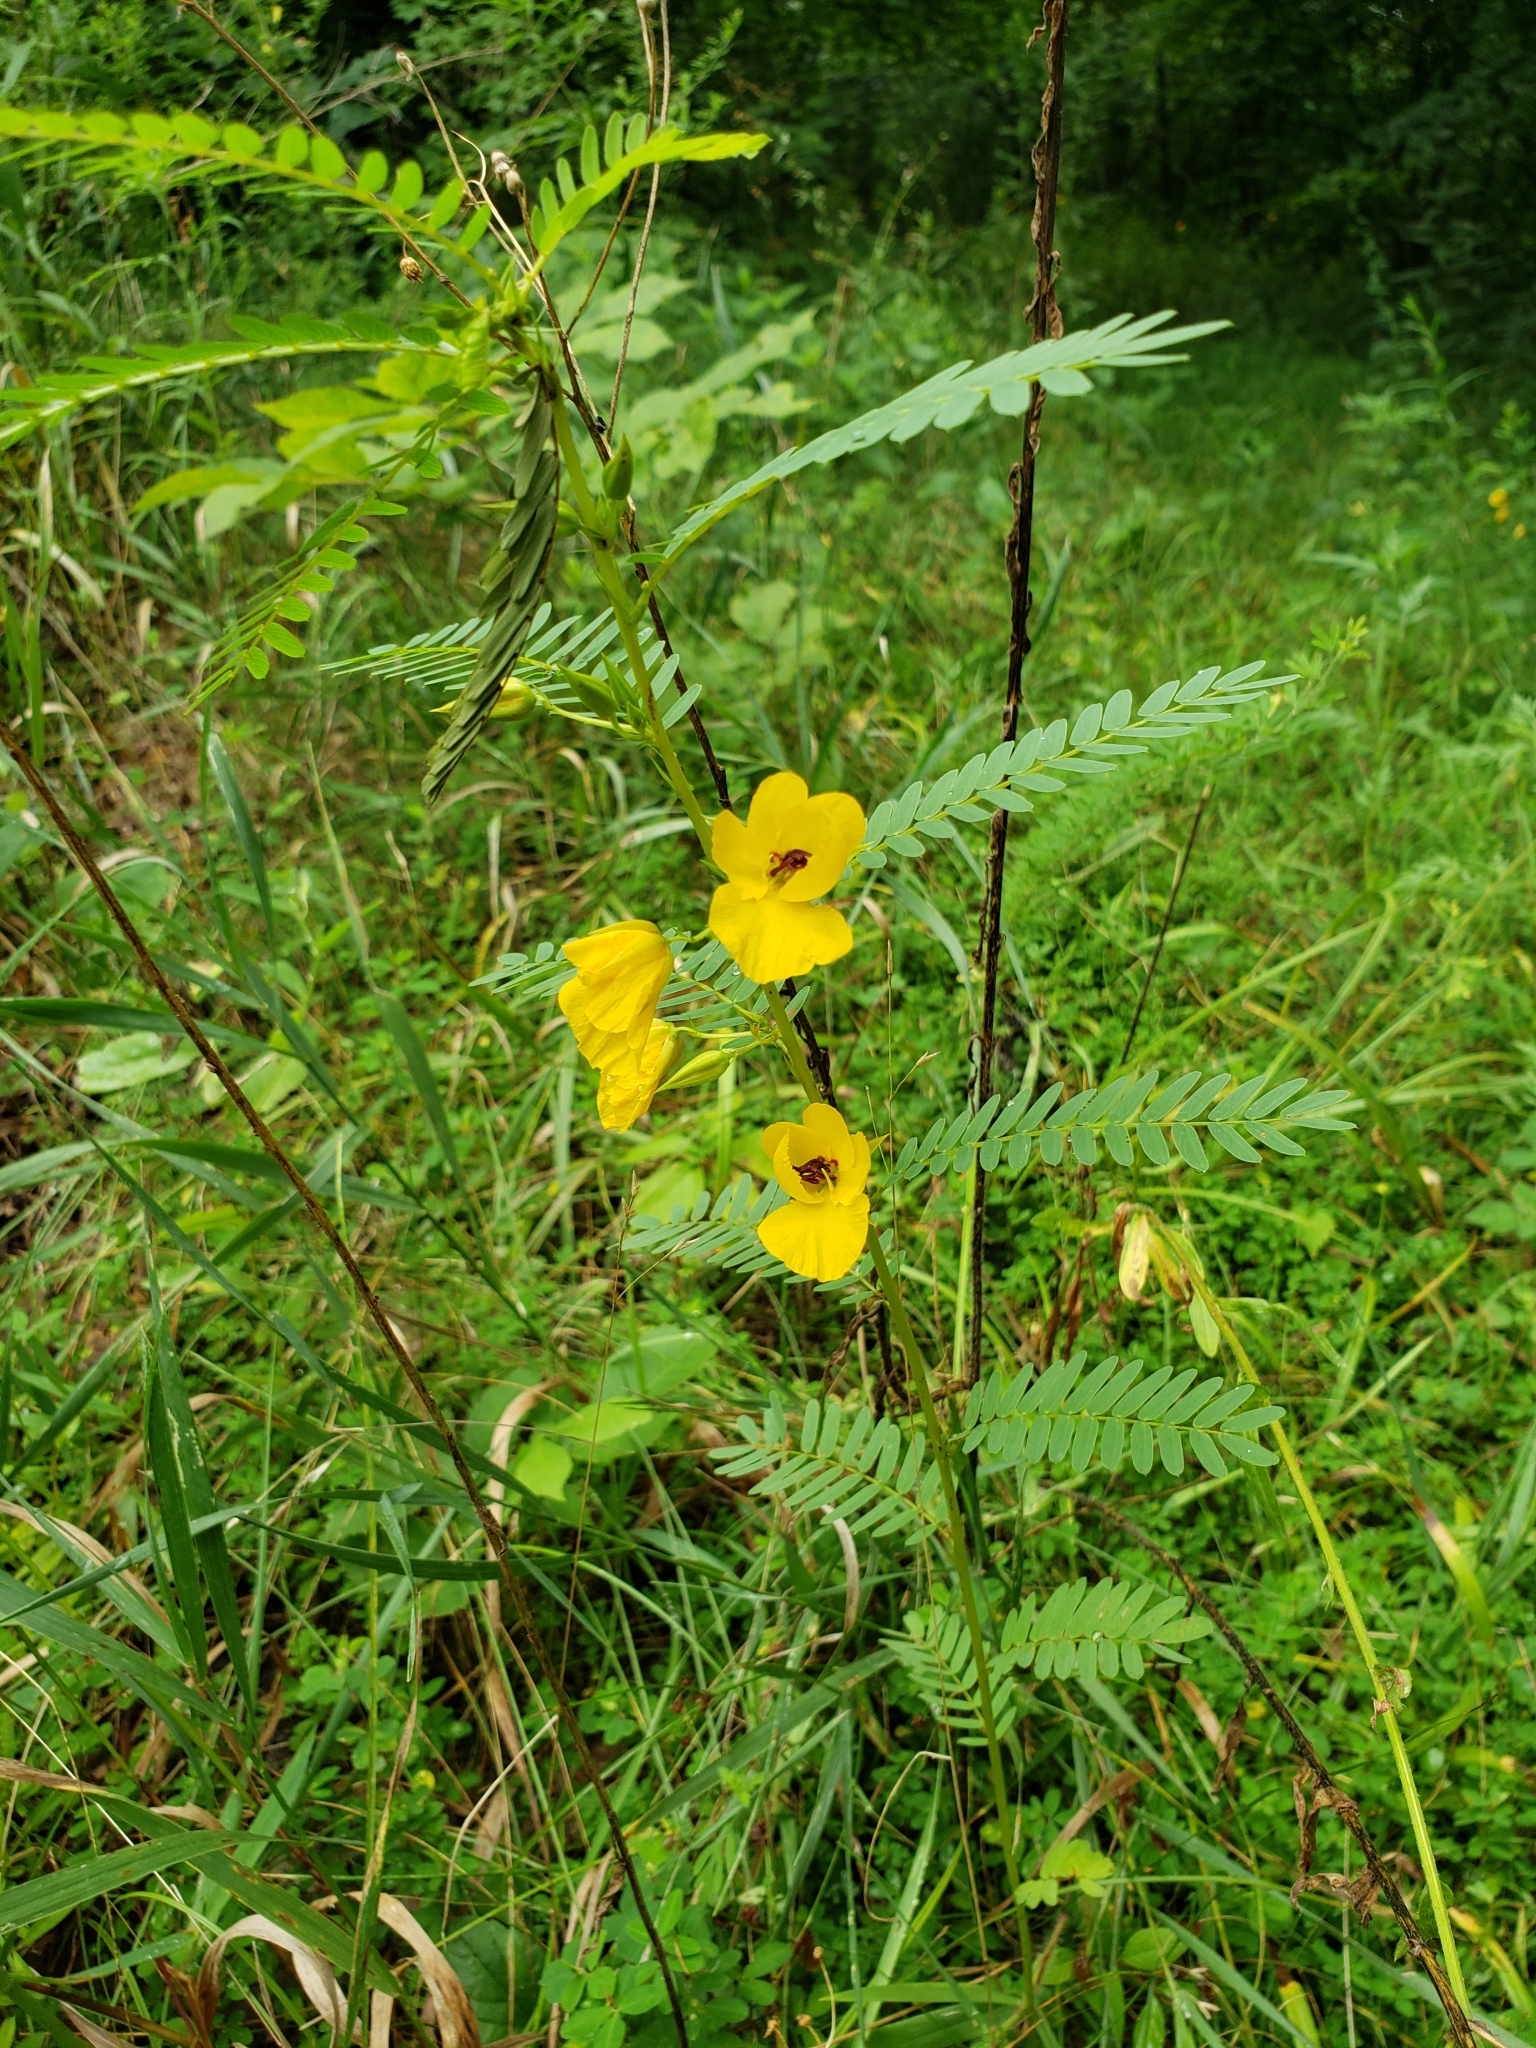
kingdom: Plantae
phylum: Tracheophyta
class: Magnoliopsida
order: Fabales
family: Fabaceae
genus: Chamaecrista
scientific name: Chamaecrista fasciculata
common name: Golden cassia
